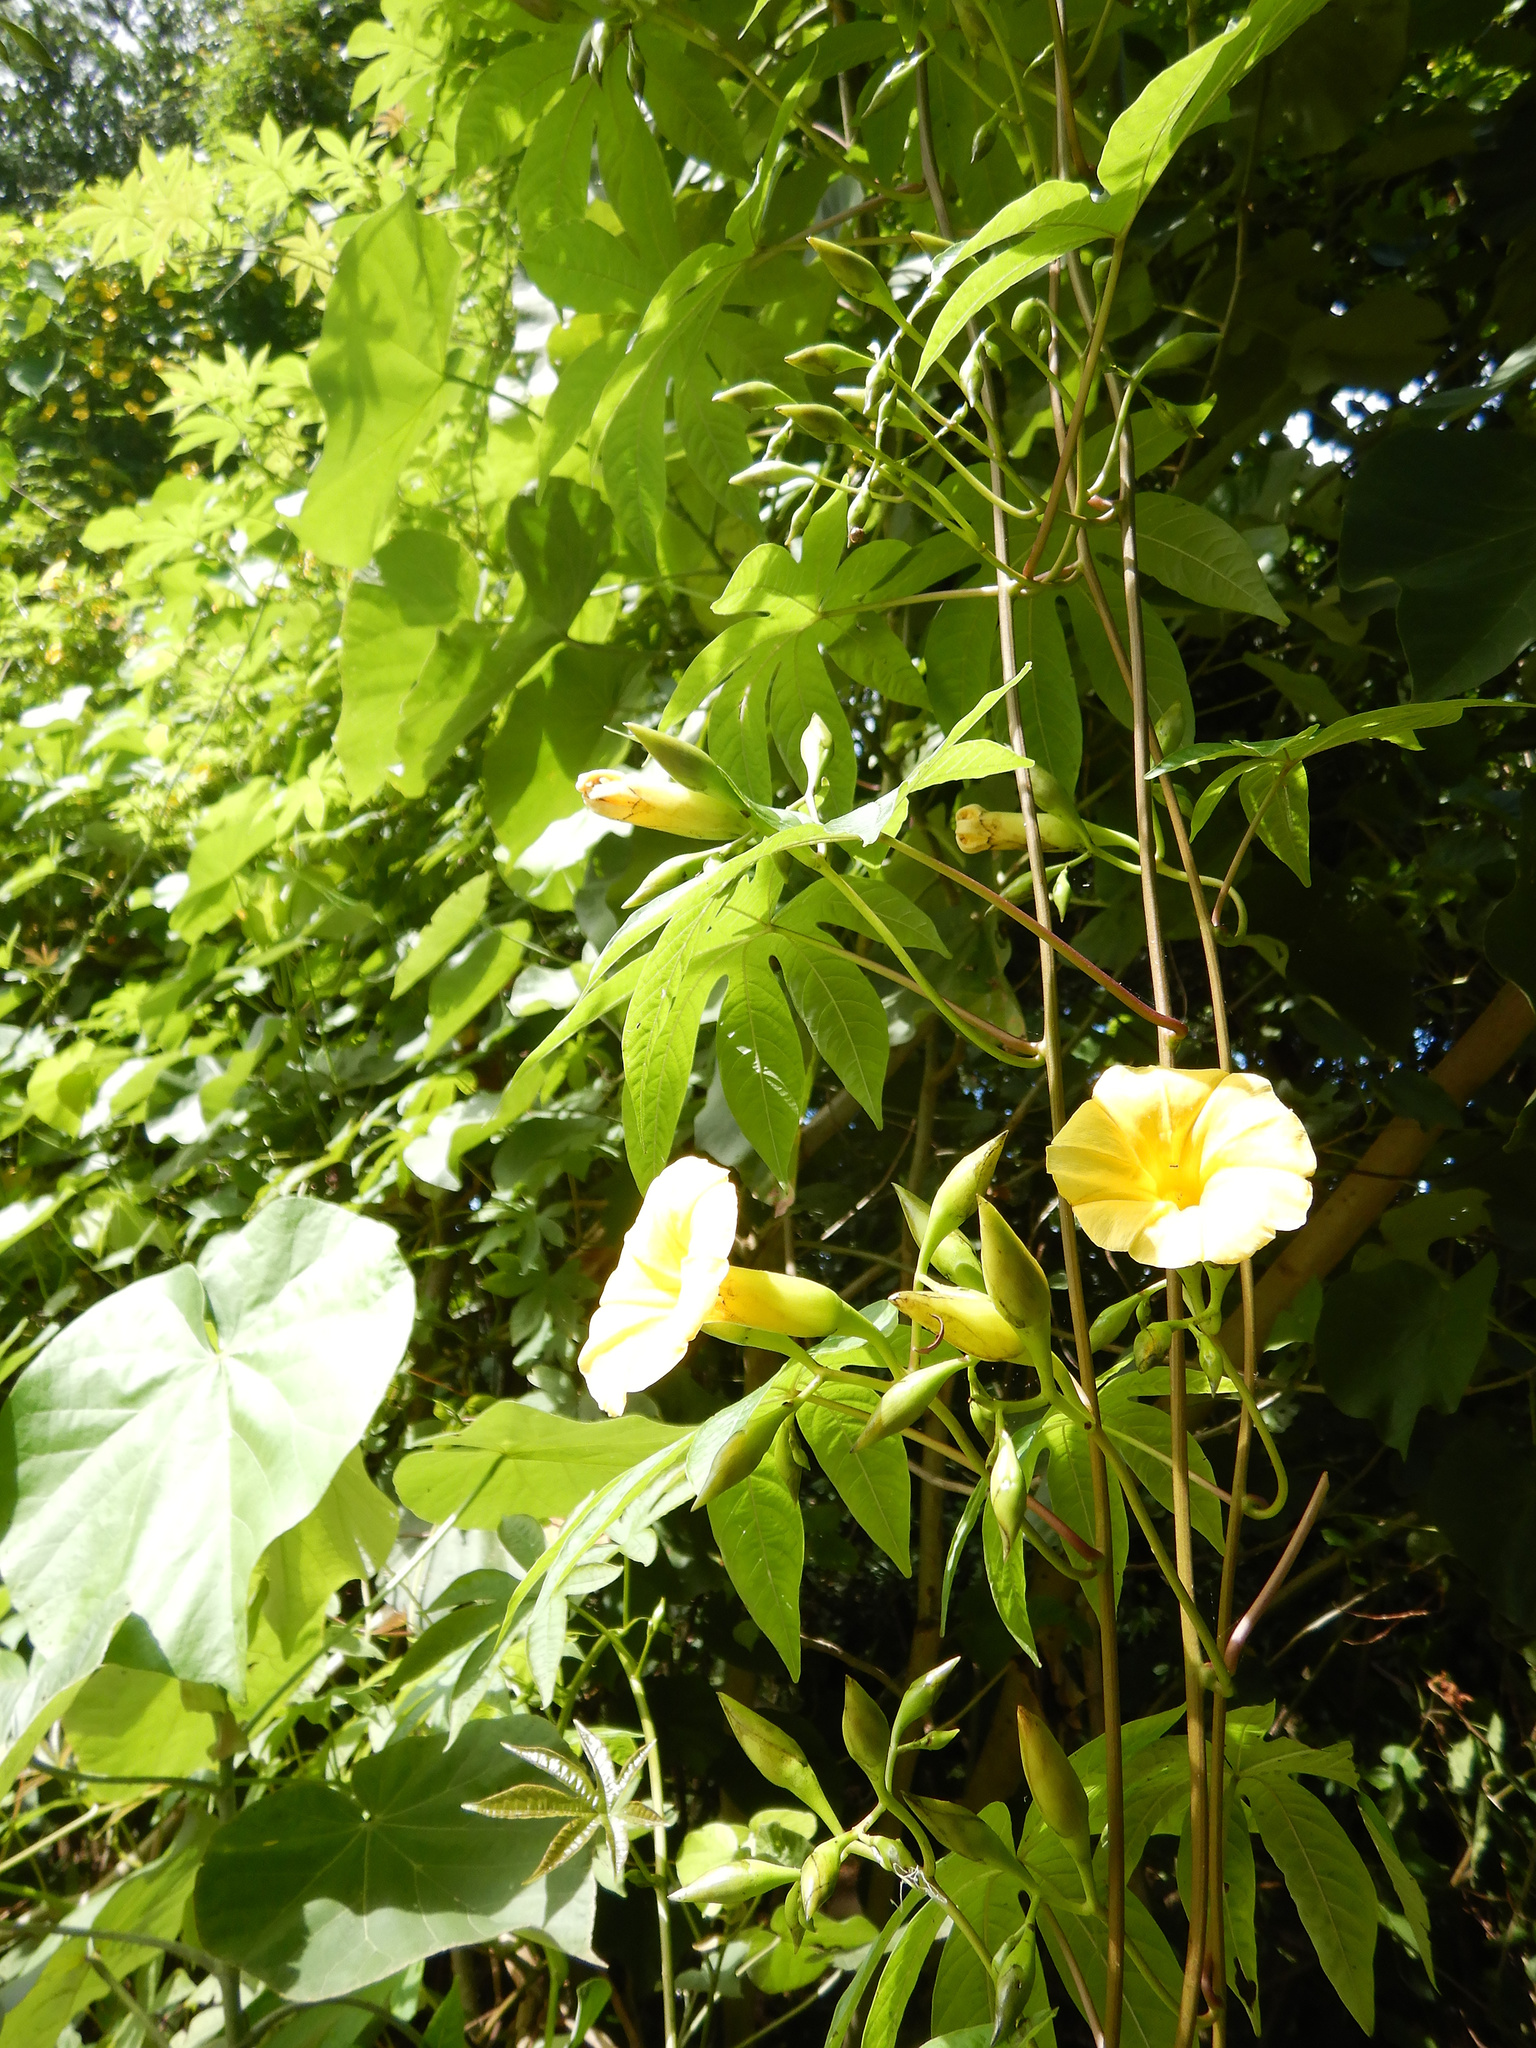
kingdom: Plantae
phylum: Tracheophyta
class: Magnoliopsida
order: Solanales
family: Convolvulaceae
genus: Distimake
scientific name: Distimake tuberosus
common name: Spanish arborvine
